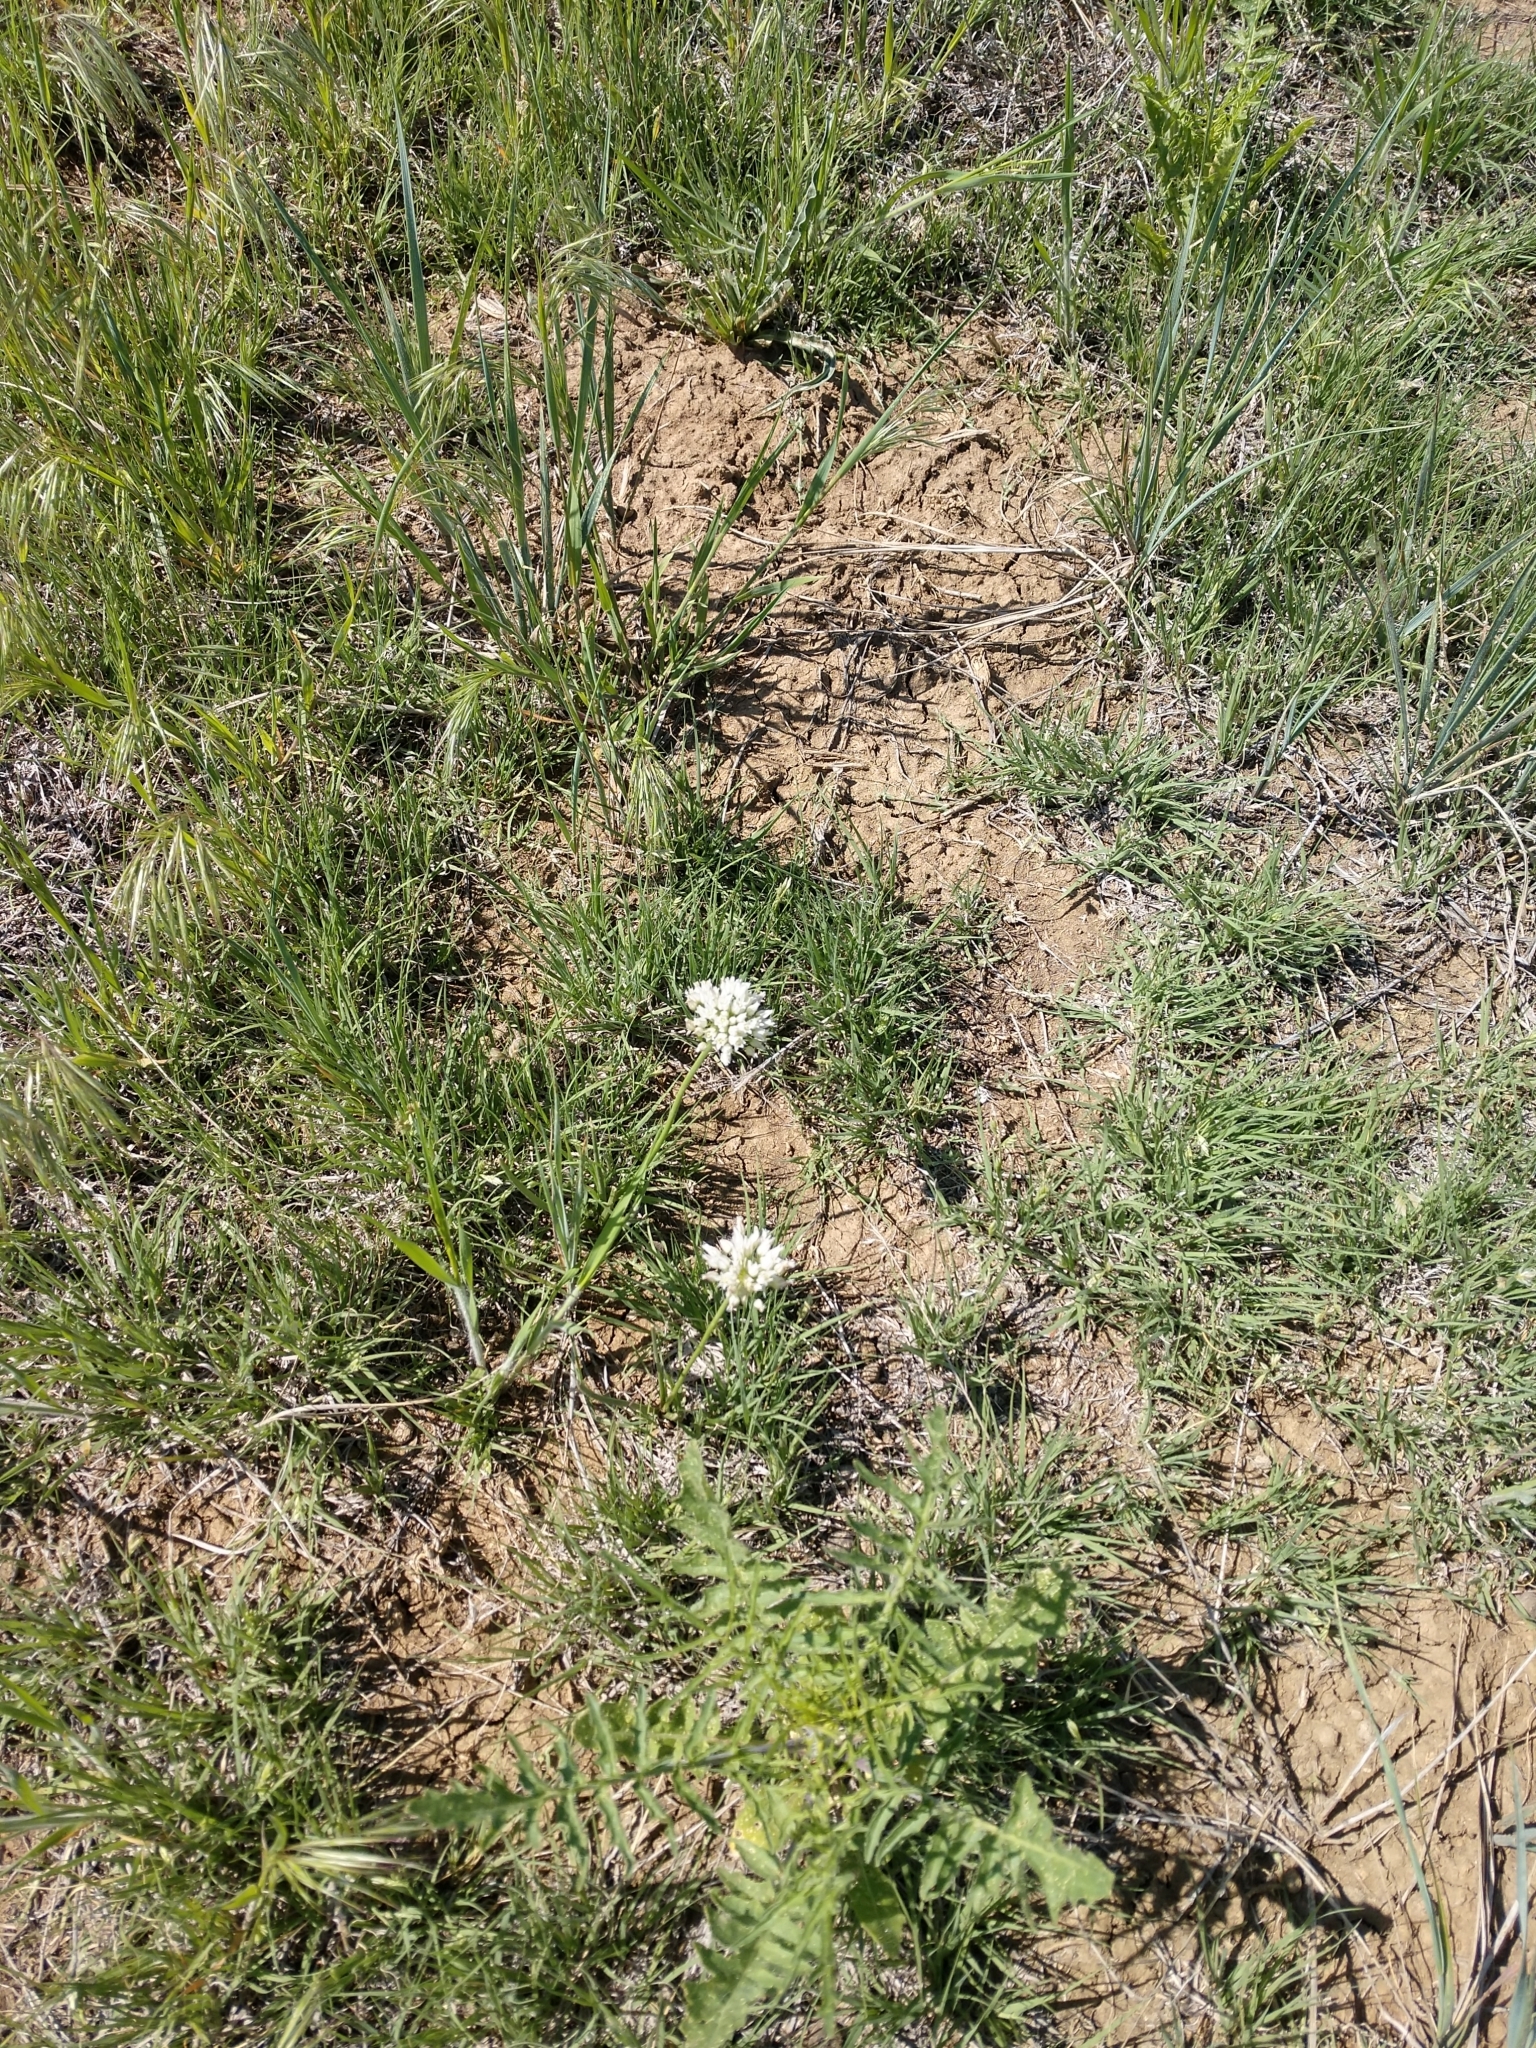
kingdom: Plantae
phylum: Tracheophyta
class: Liliopsida
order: Asparagales
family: Amaryllidaceae
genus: Allium
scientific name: Allium textile
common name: Prairie onion
